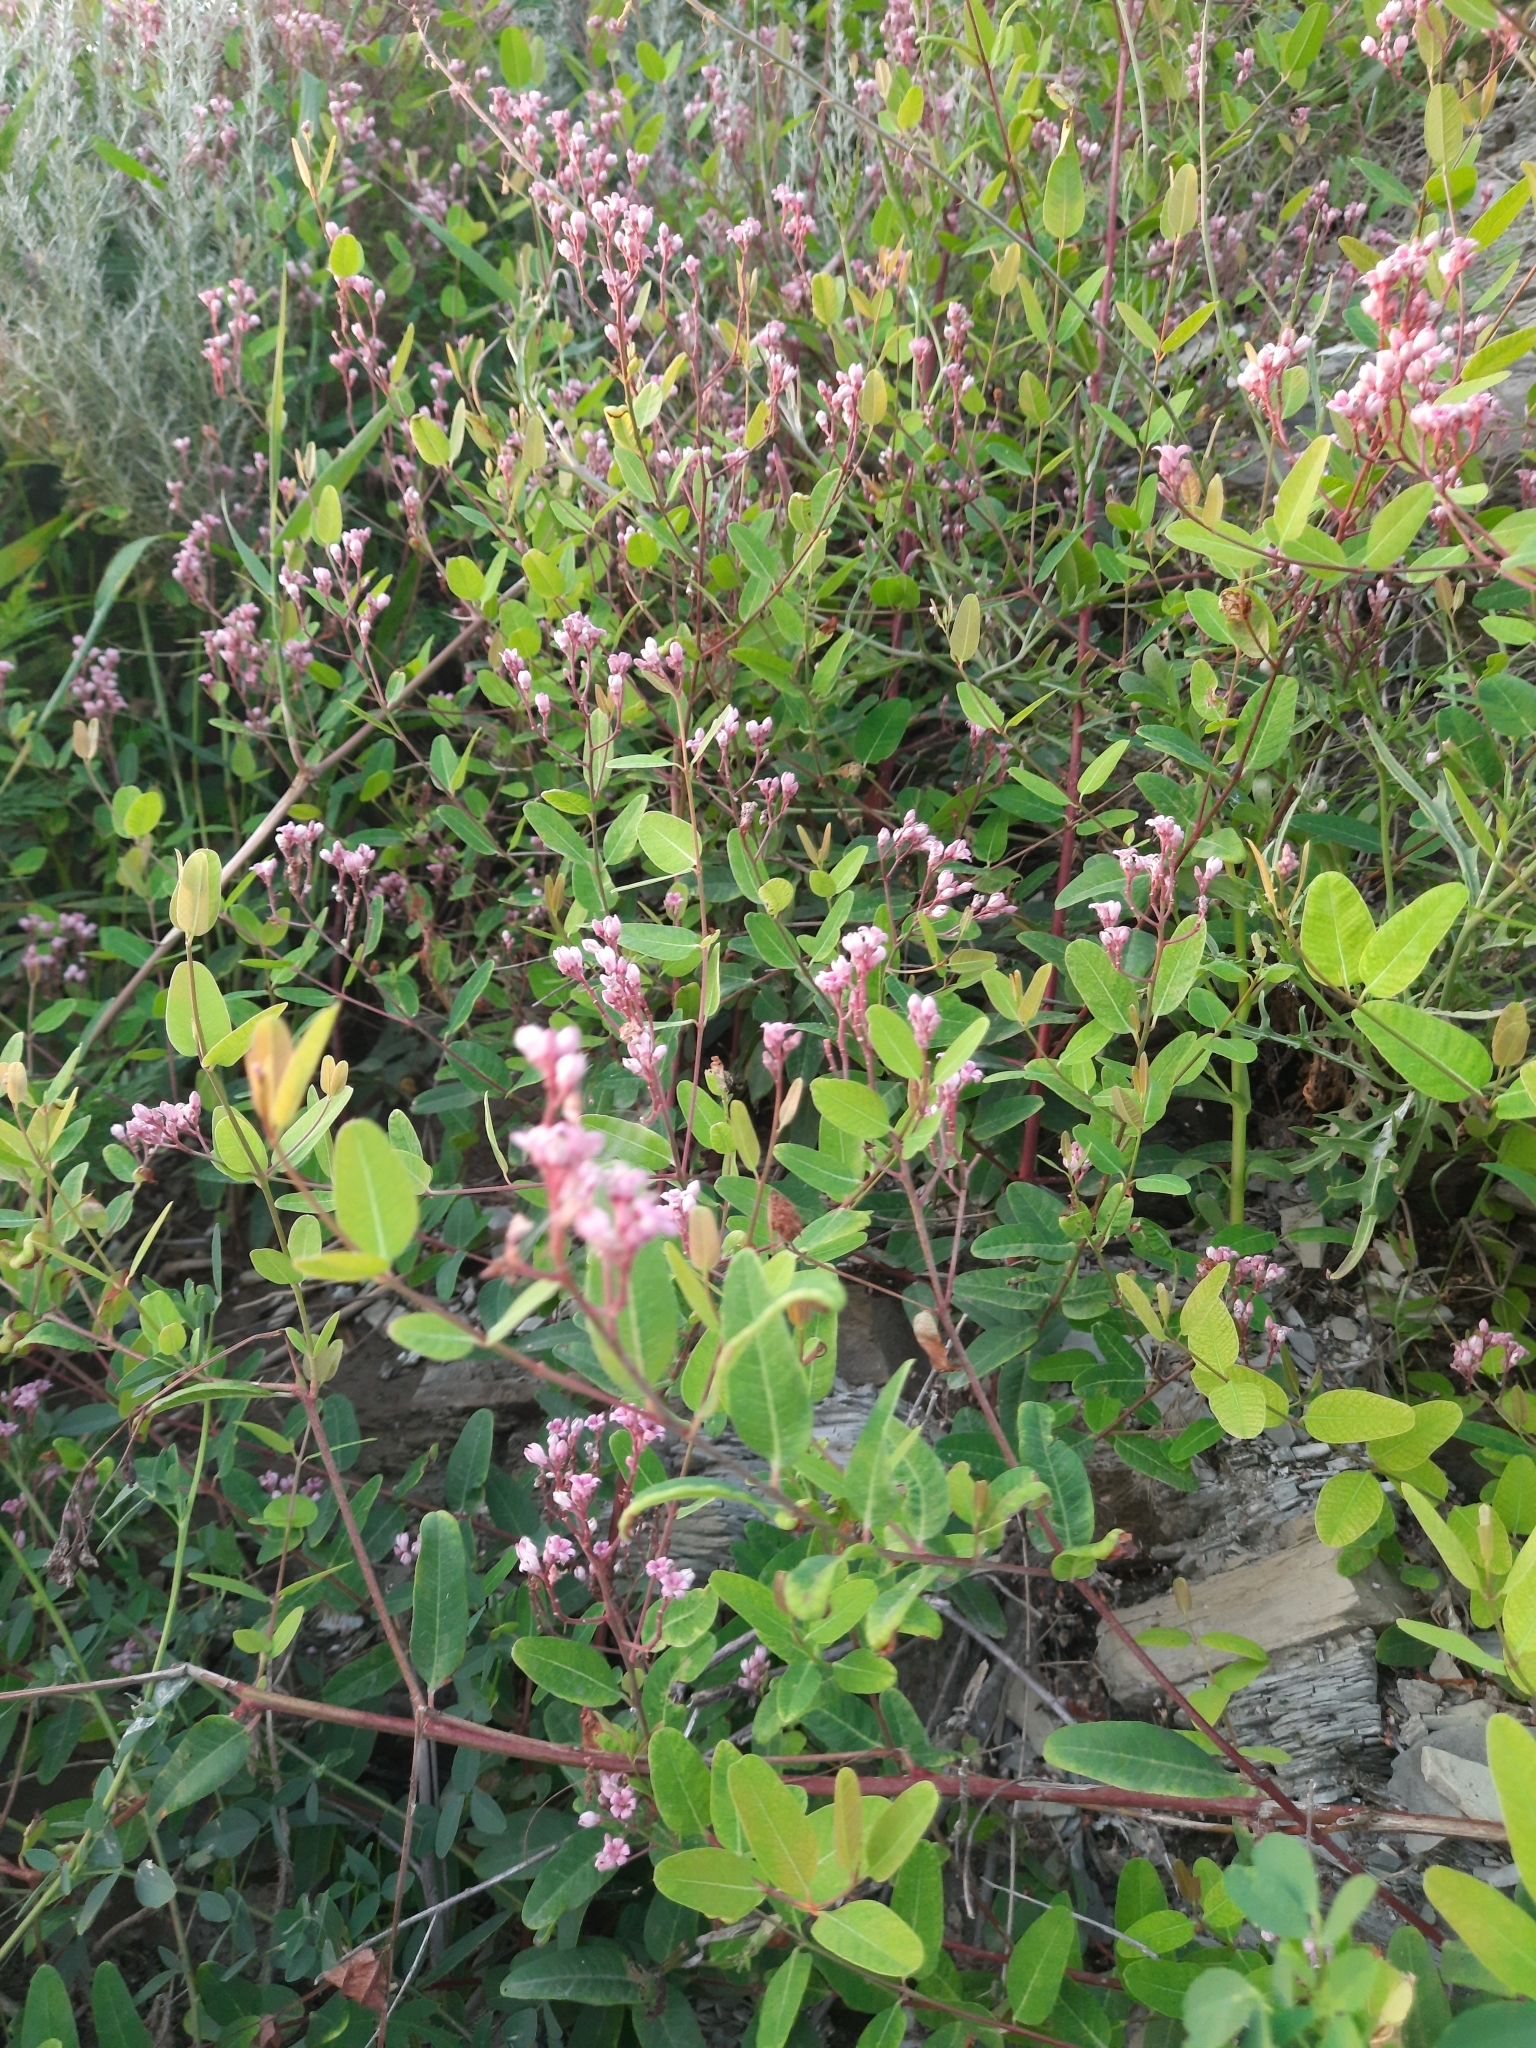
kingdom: Plantae
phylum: Tracheophyta
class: Magnoliopsida
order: Gentianales
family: Apocynaceae
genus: Poacynum
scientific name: Poacynum venetum
